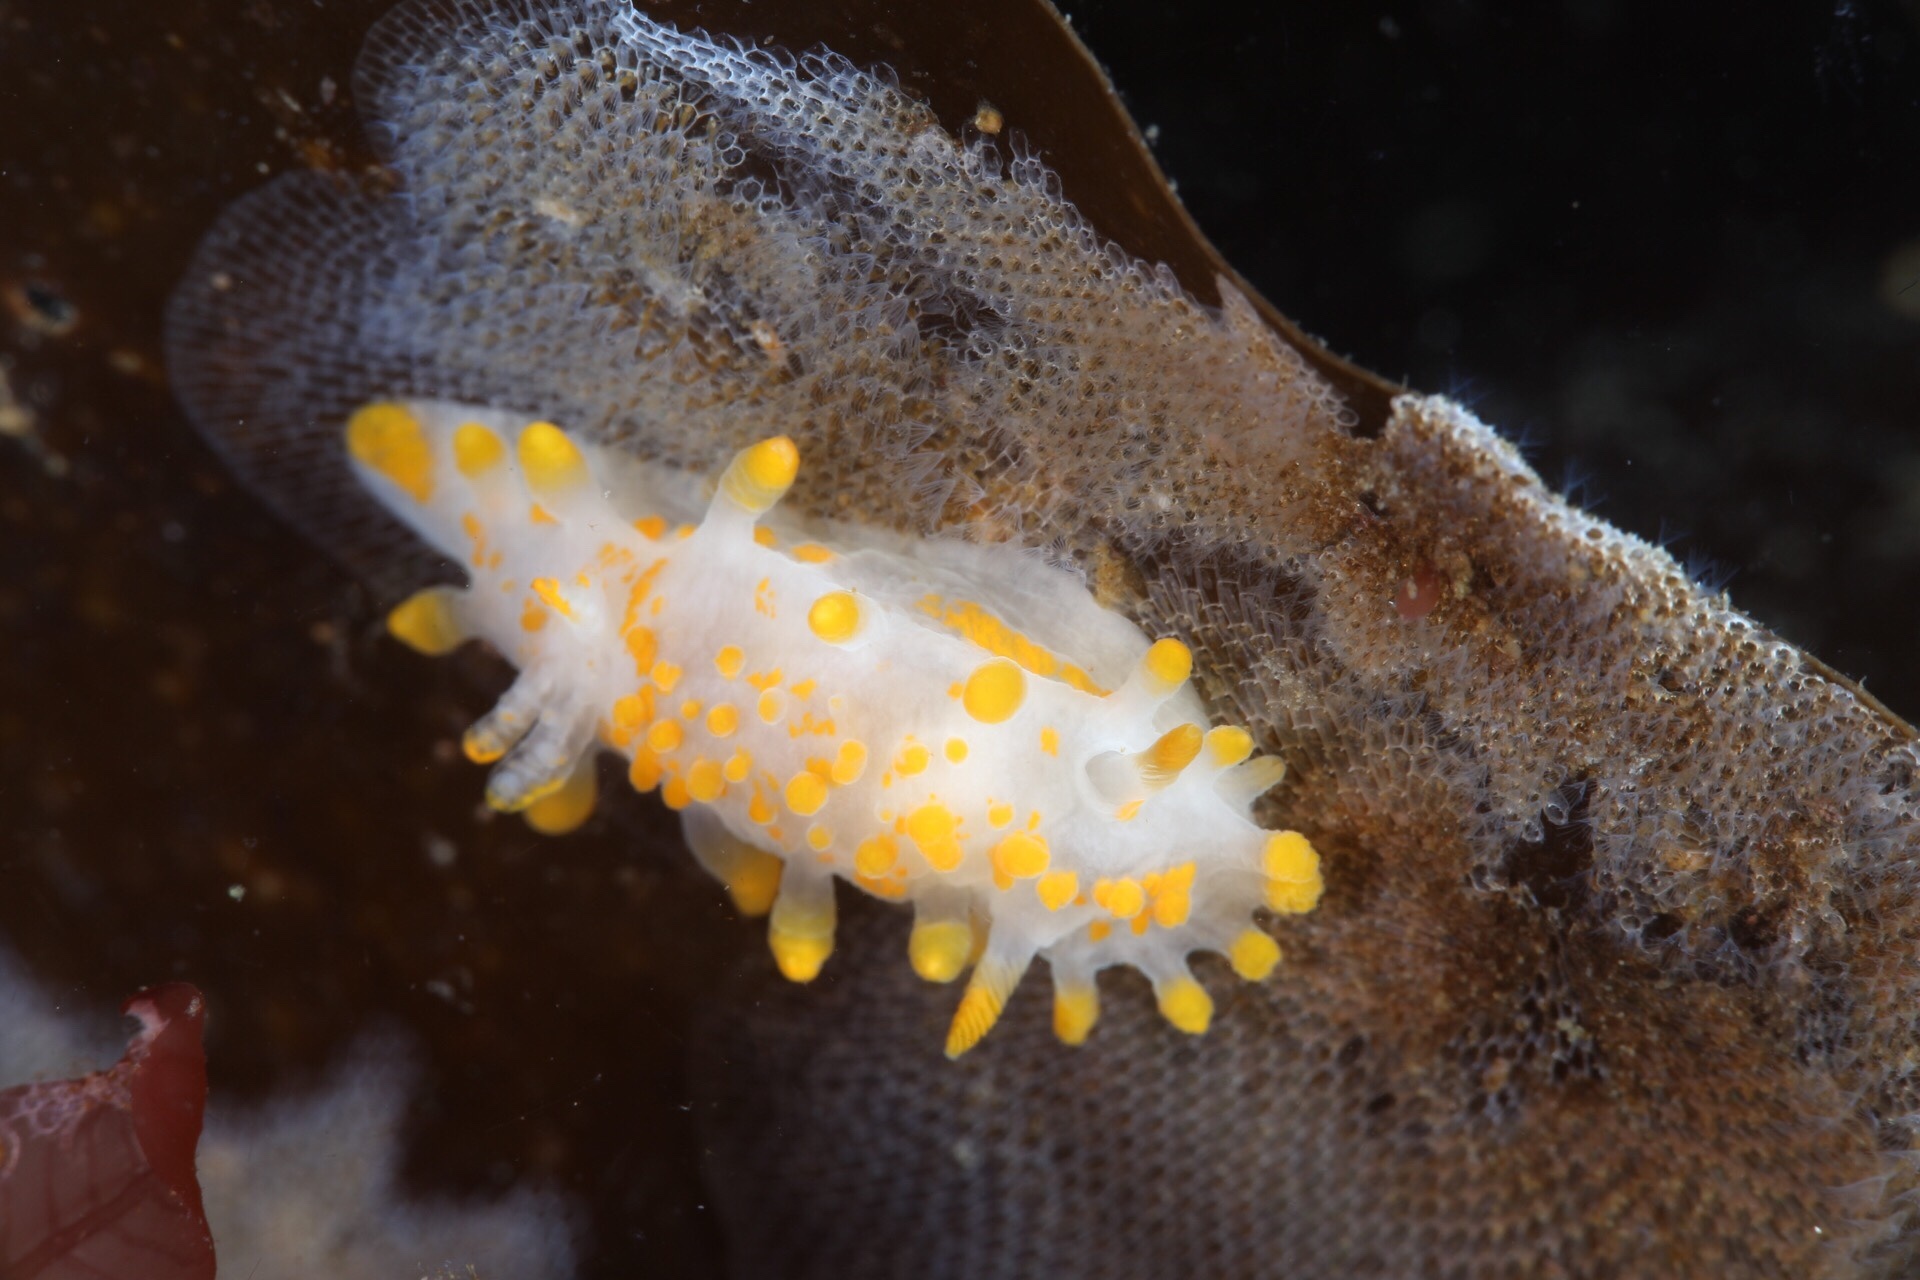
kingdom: Animalia
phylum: Mollusca
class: Gastropoda
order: Nudibranchia
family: Polyceridae
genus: Limacia
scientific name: Limacia clavigera
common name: Orange-clubbed sea slug
